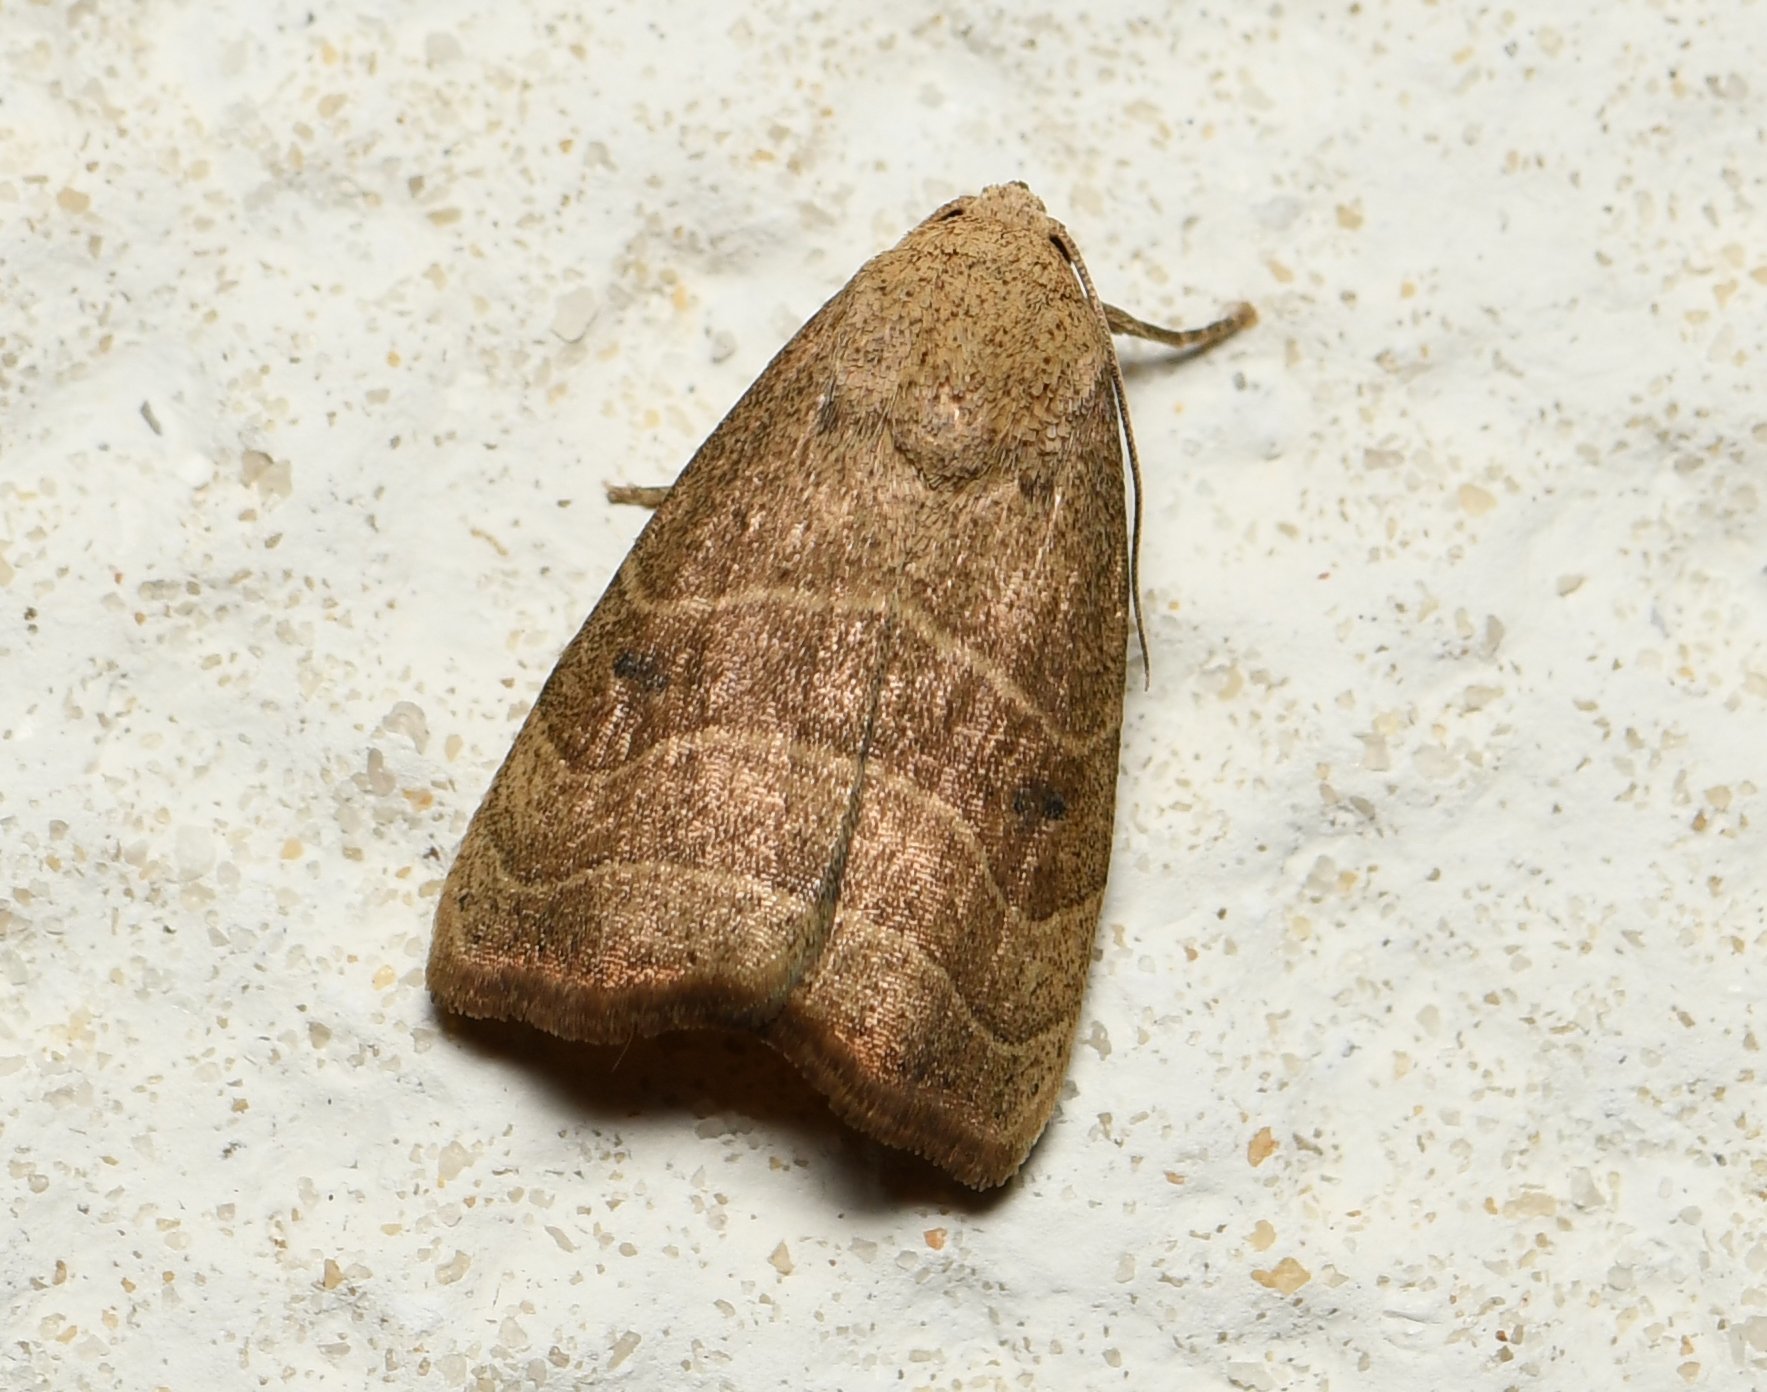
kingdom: Animalia
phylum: Arthropoda
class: Insecta
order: Lepidoptera
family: Noctuidae
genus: Bagisara
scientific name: Bagisara repanda
